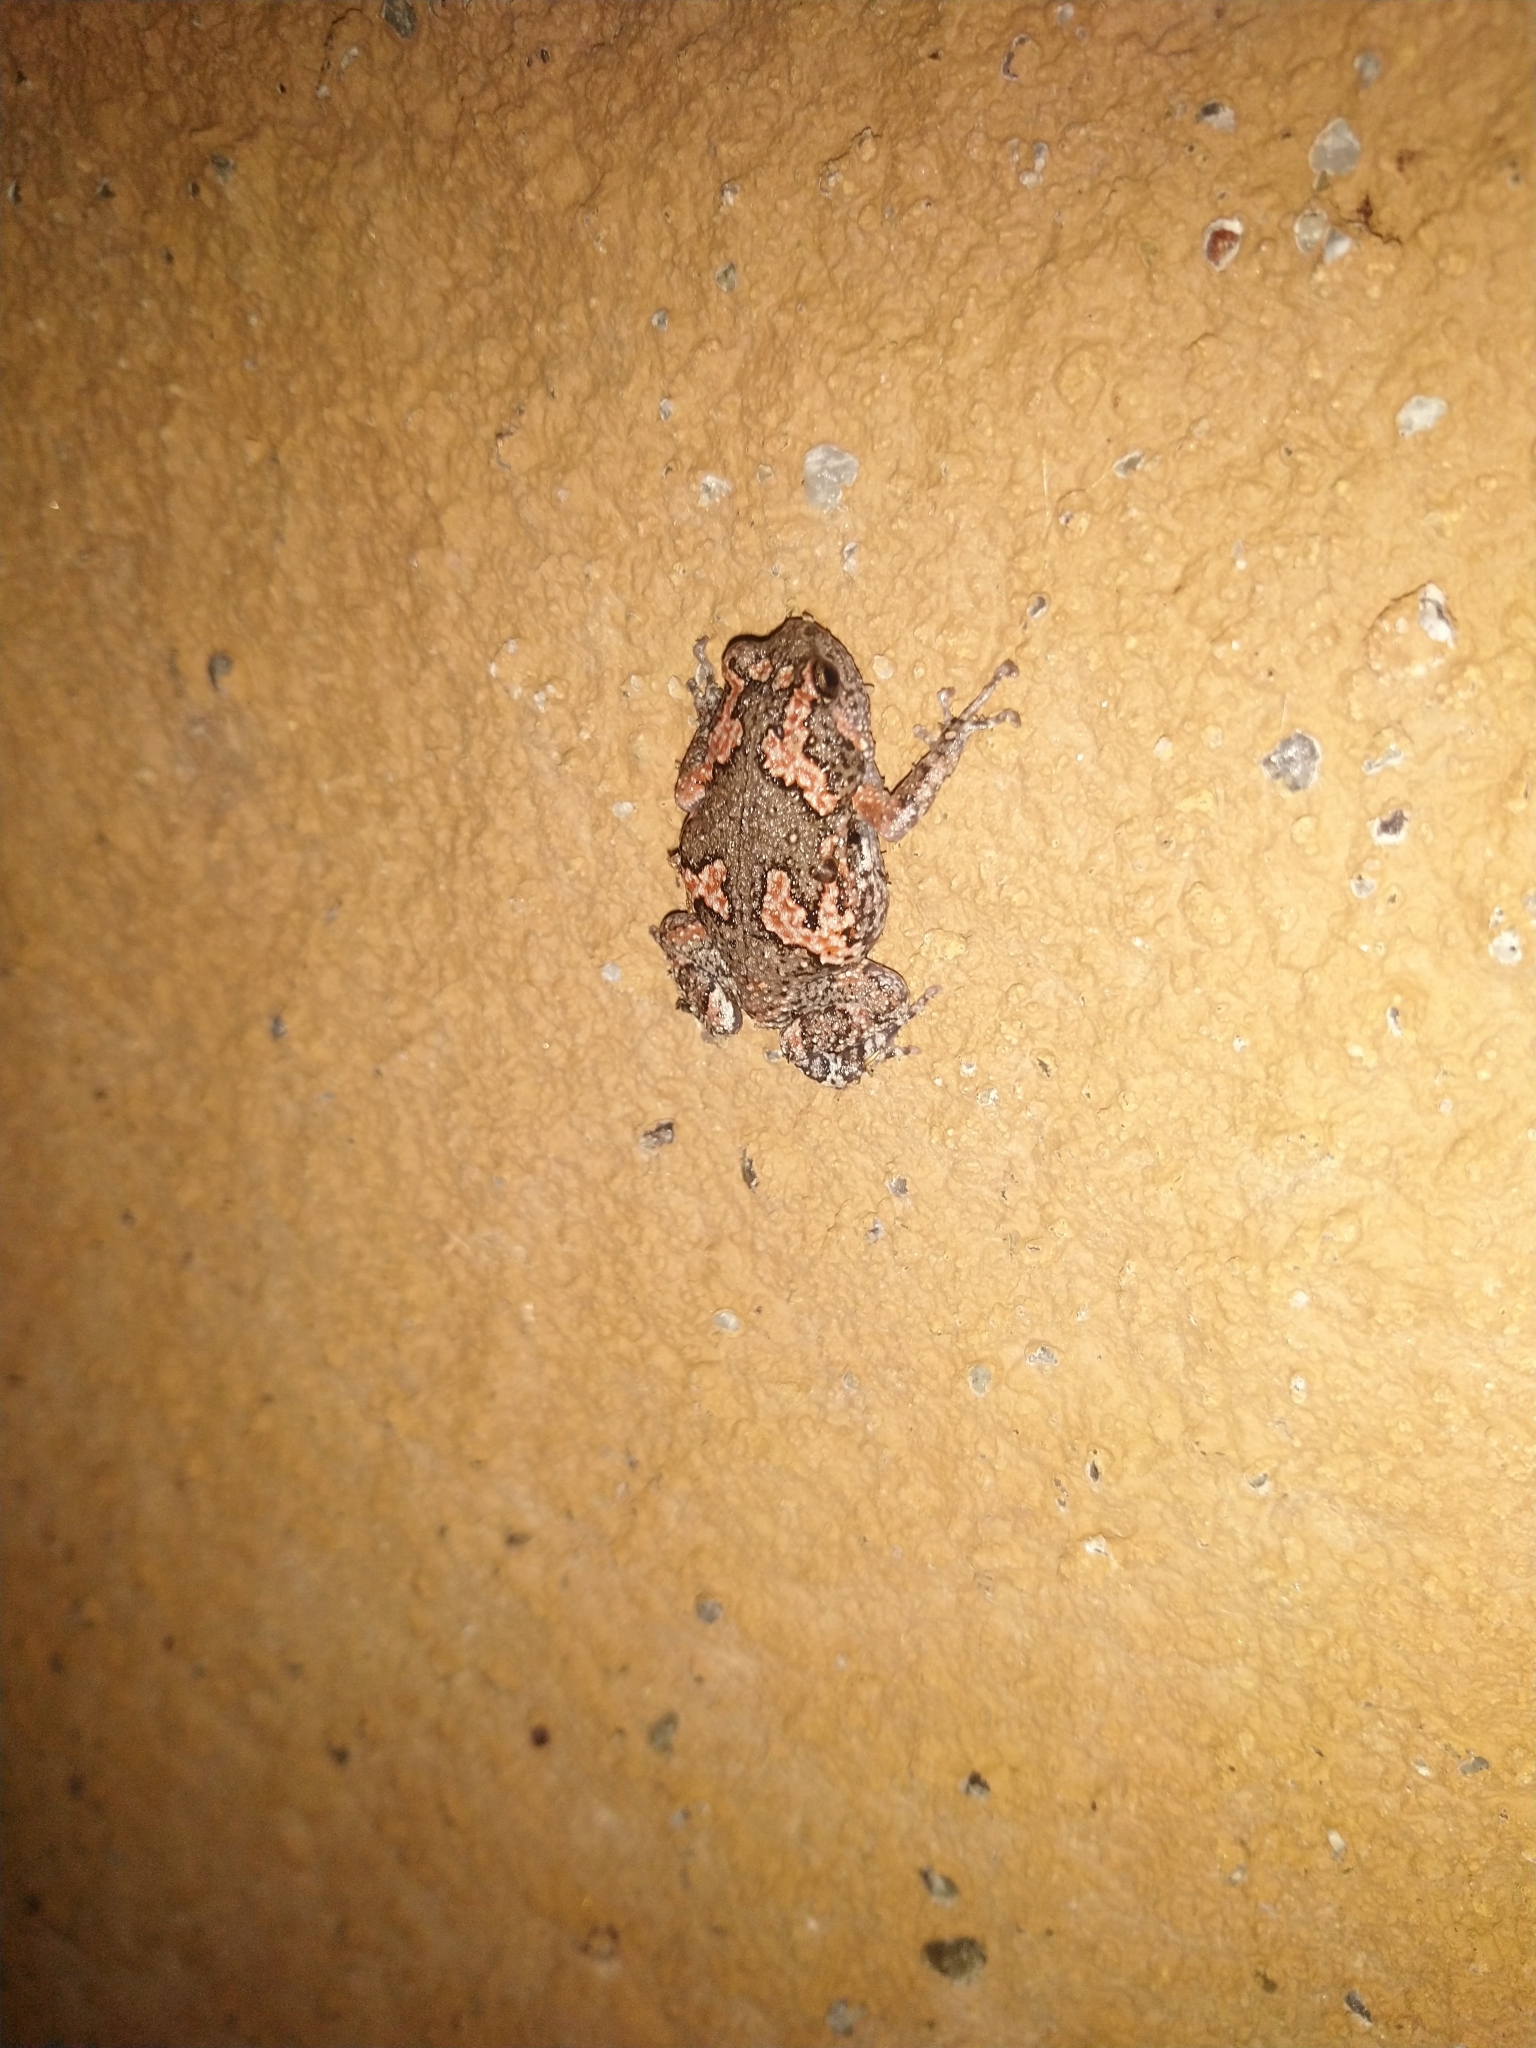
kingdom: Animalia
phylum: Chordata
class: Amphibia
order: Anura
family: Microhylidae
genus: Uperodon
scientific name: Uperodon taprobanicus
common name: Ceylon kaloula
